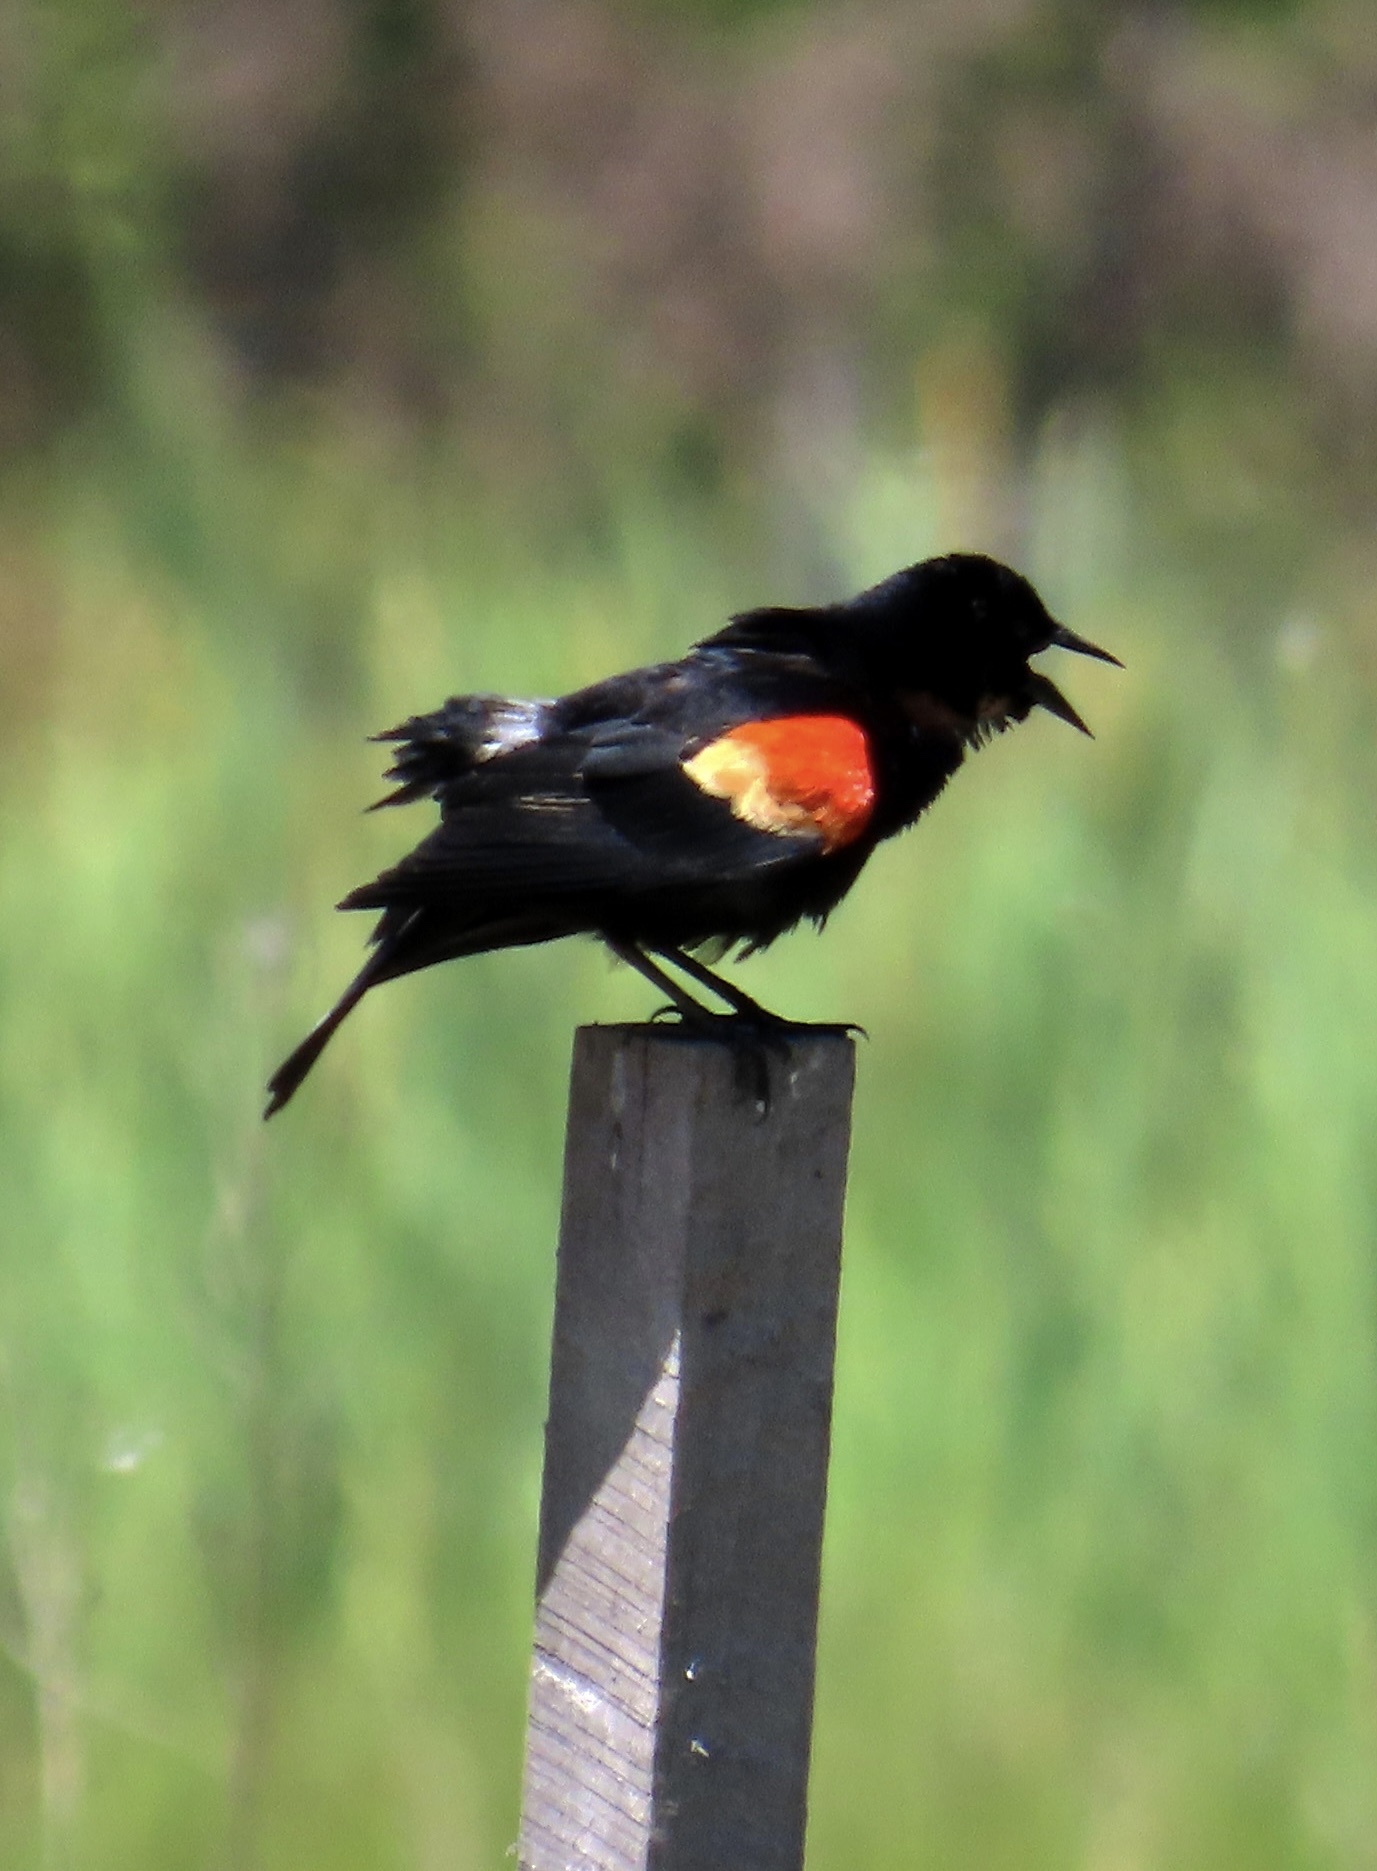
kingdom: Animalia
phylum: Chordata
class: Aves
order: Passeriformes
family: Icteridae
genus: Agelaius
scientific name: Agelaius phoeniceus
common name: Red-winged blackbird
